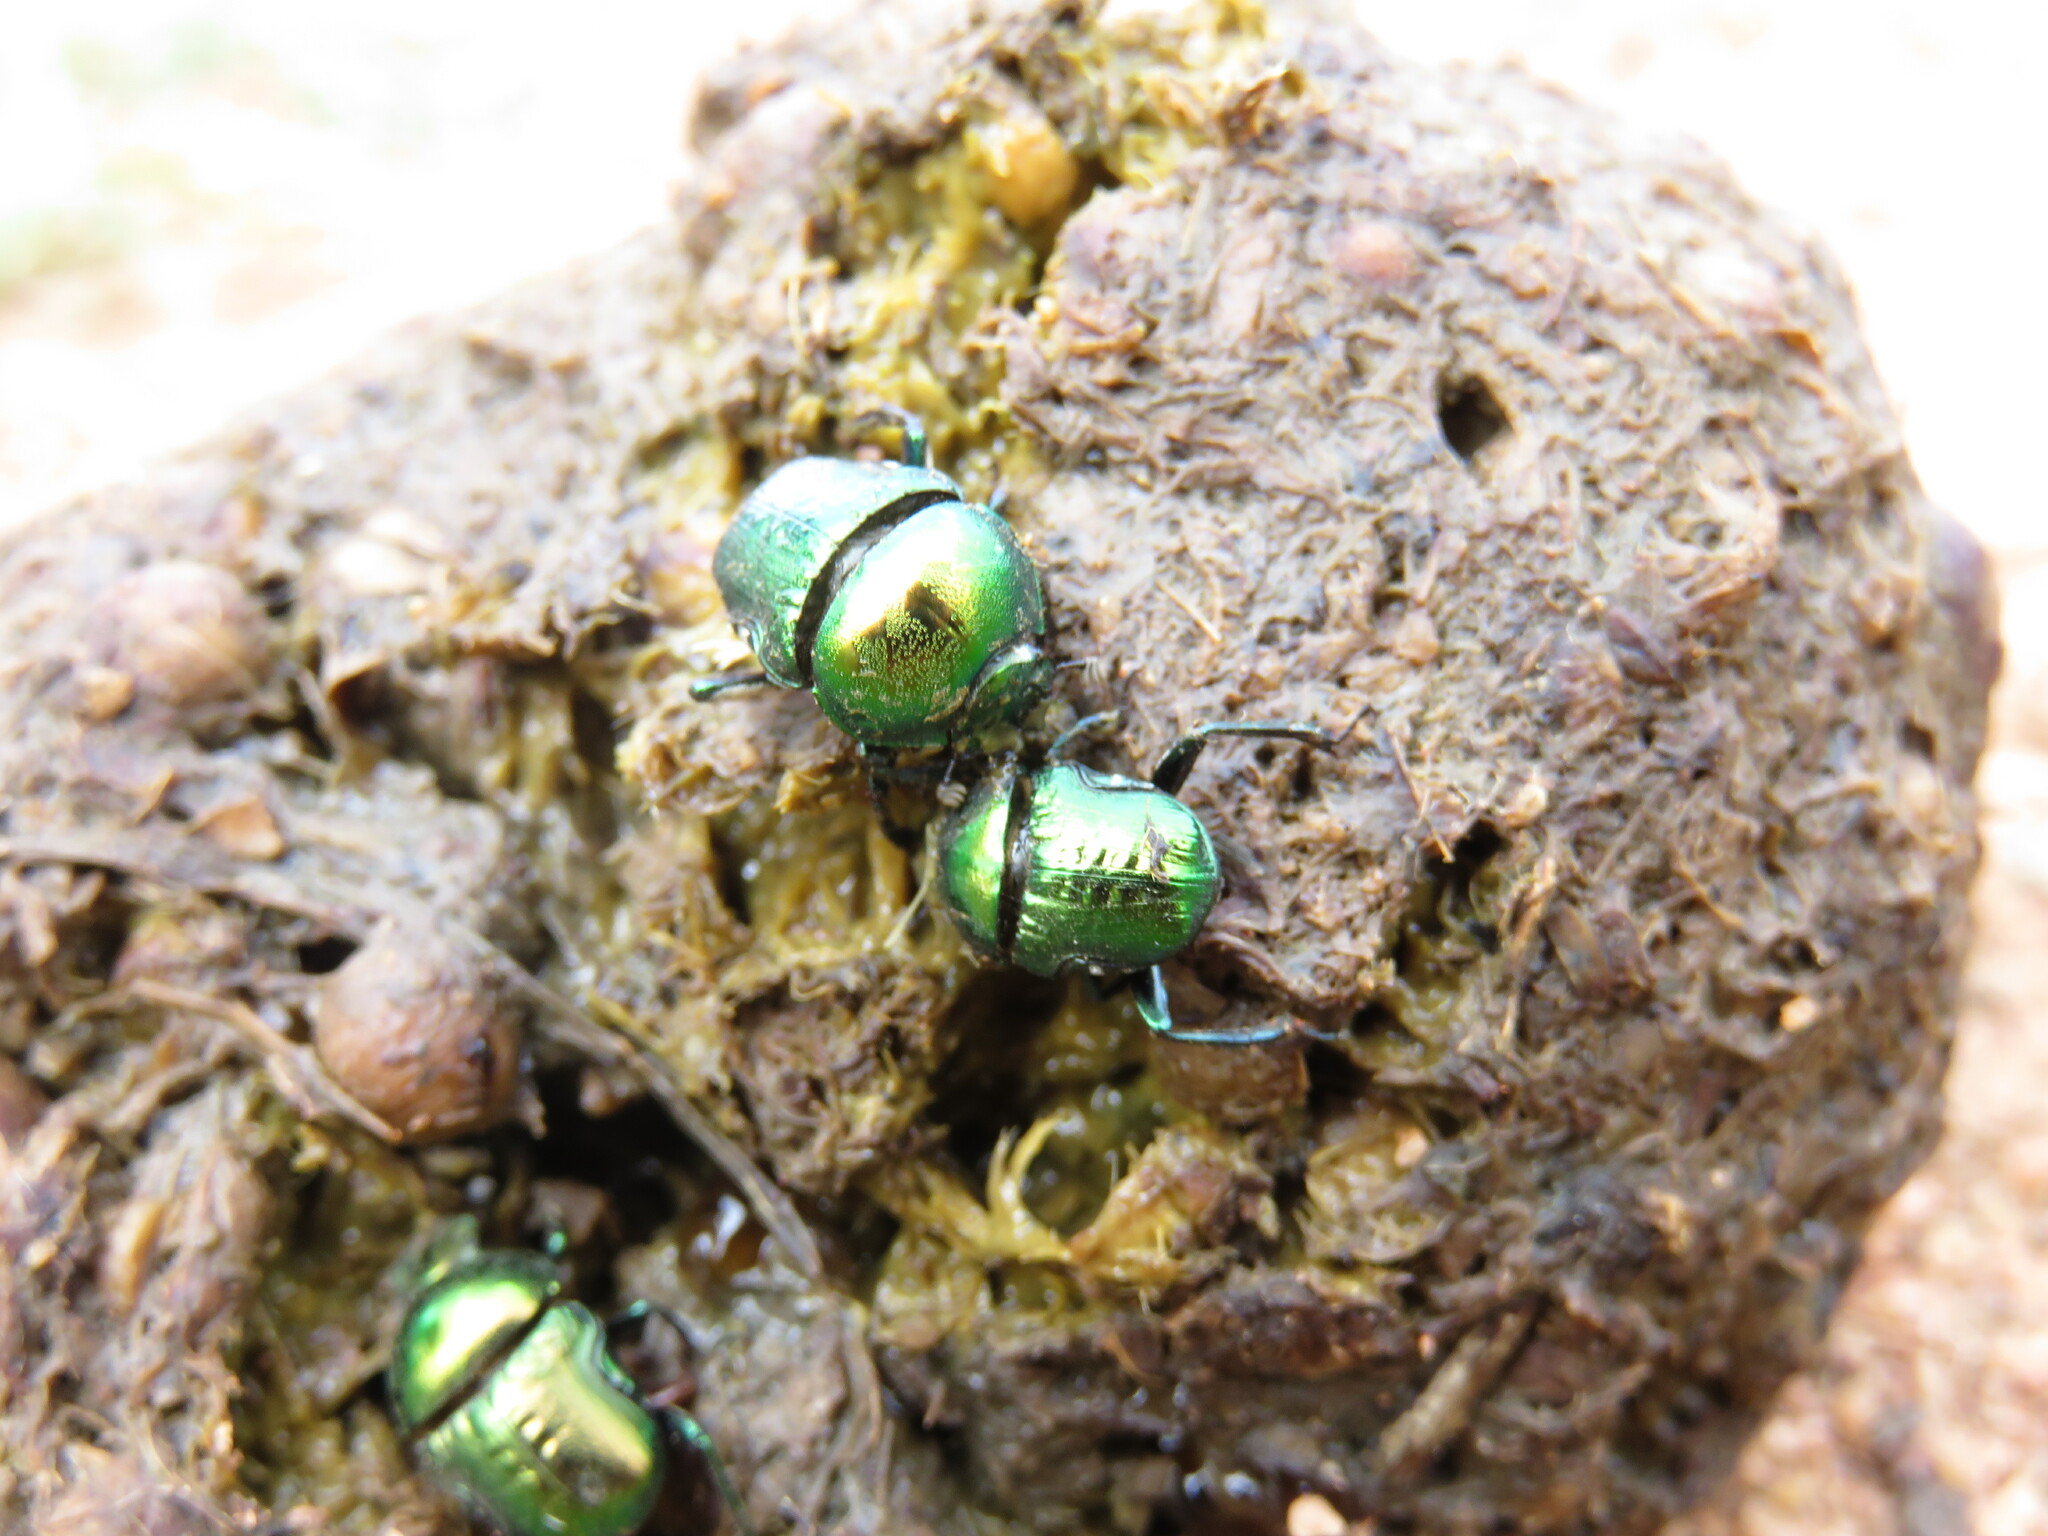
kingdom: Animalia
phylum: Arthropoda
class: Insecta
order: Coleoptera
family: Scarabaeidae
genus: Gymnopleurus
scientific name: Gymnopleurus virens
